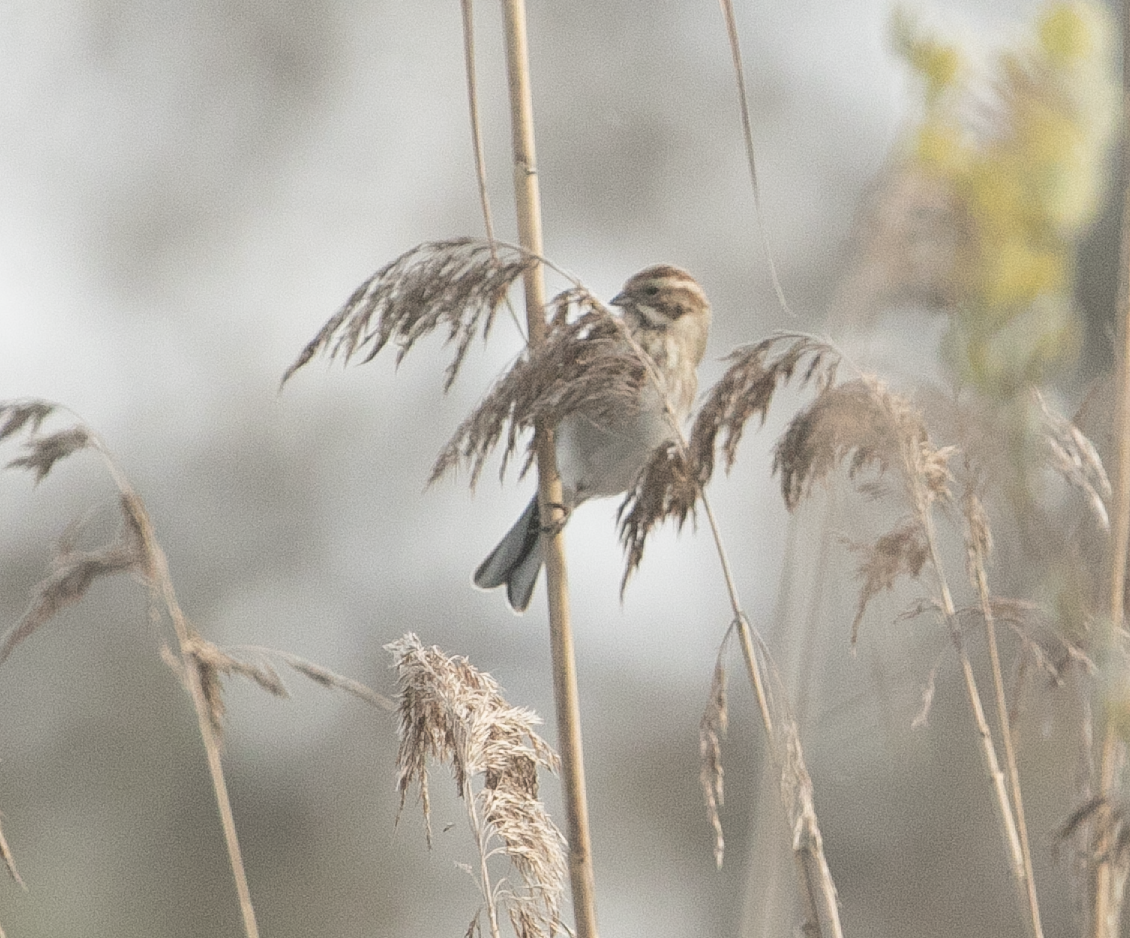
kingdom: Animalia
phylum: Chordata
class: Aves
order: Passeriformes
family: Emberizidae
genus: Emberiza
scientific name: Emberiza schoeniclus
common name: Reed bunting
